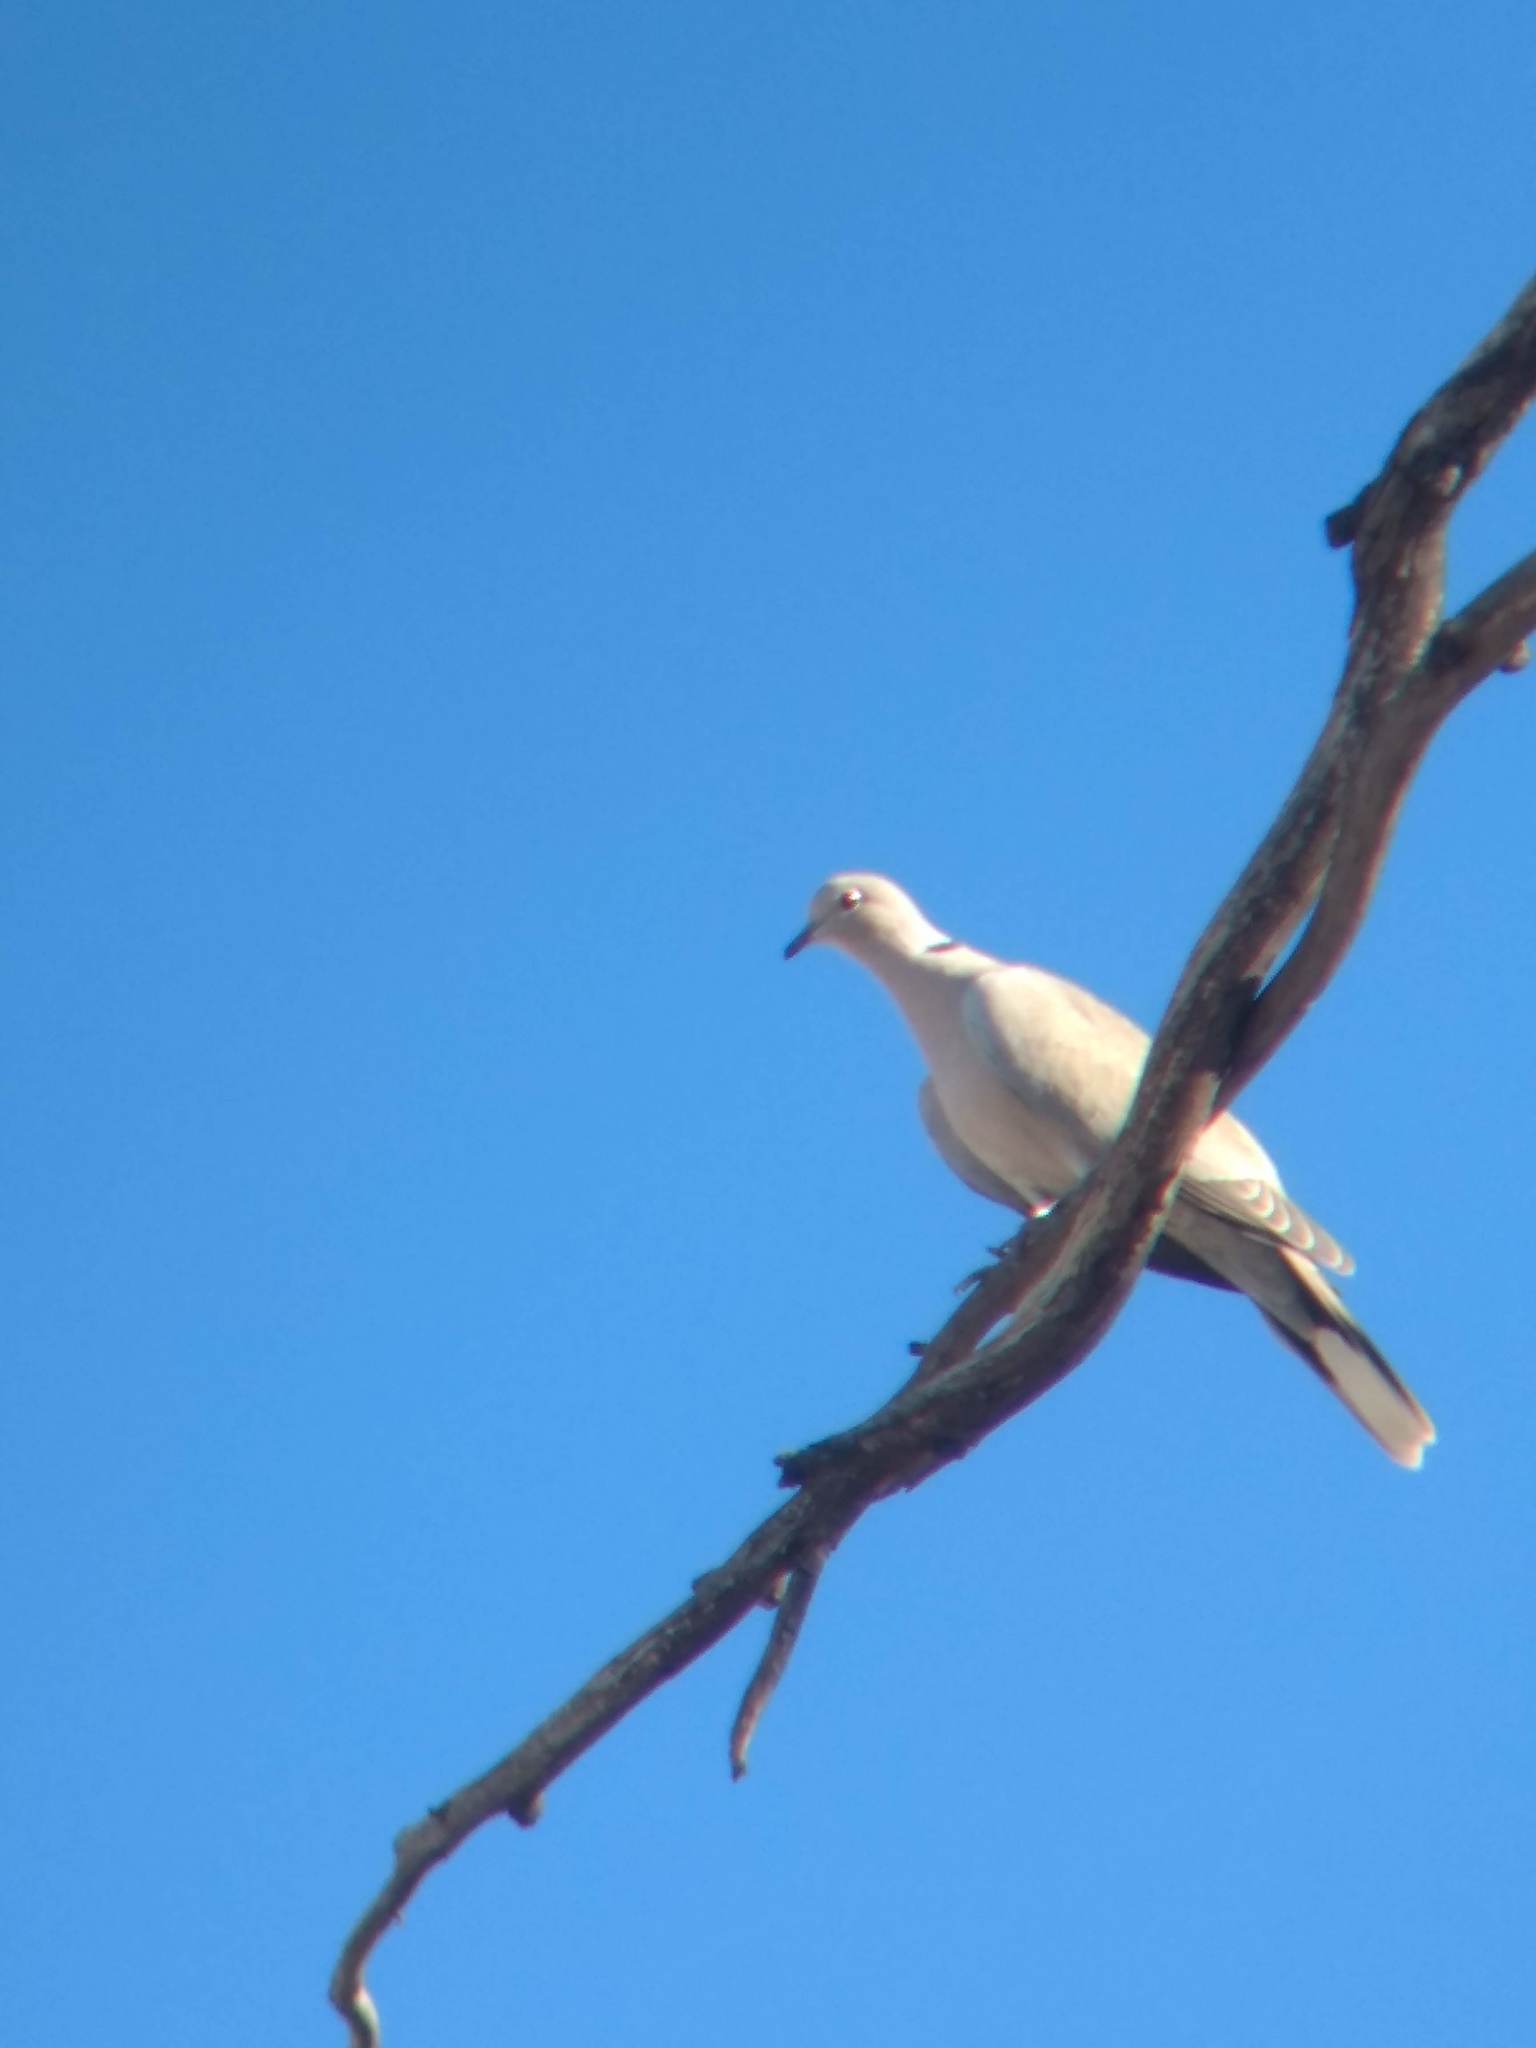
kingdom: Animalia
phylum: Chordata
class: Aves
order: Columbiformes
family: Columbidae
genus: Streptopelia
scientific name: Streptopelia decaocto
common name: Eurasian collared dove
